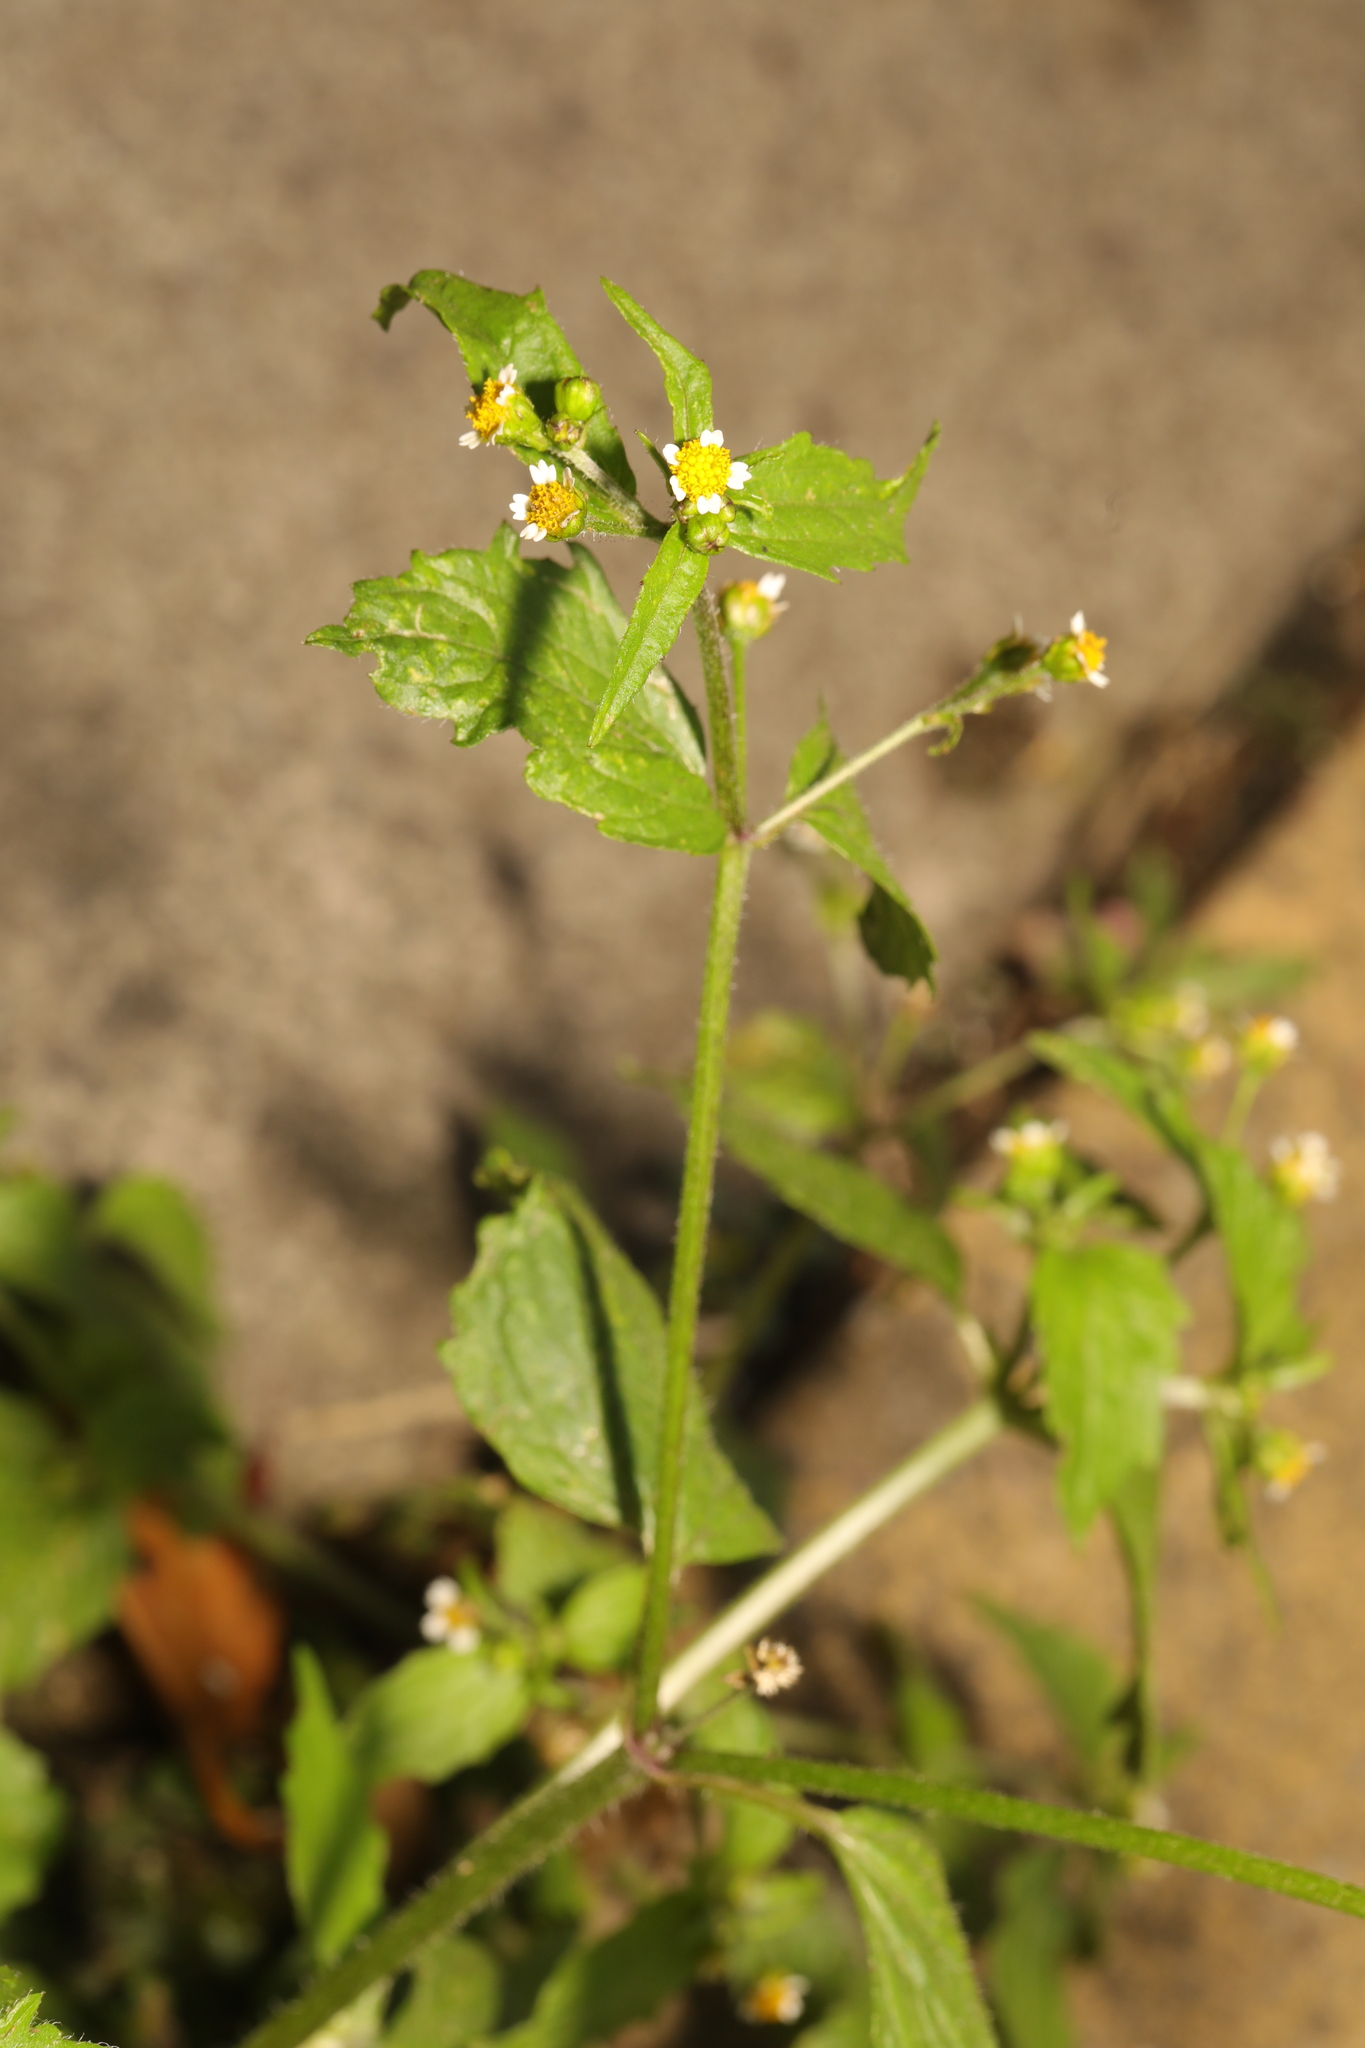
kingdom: Plantae
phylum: Tracheophyta
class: Magnoliopsida
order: Asterales
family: Asteraceae
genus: Galinsoga
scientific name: Galinsoga quadriradiata
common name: Shaggy soldier
